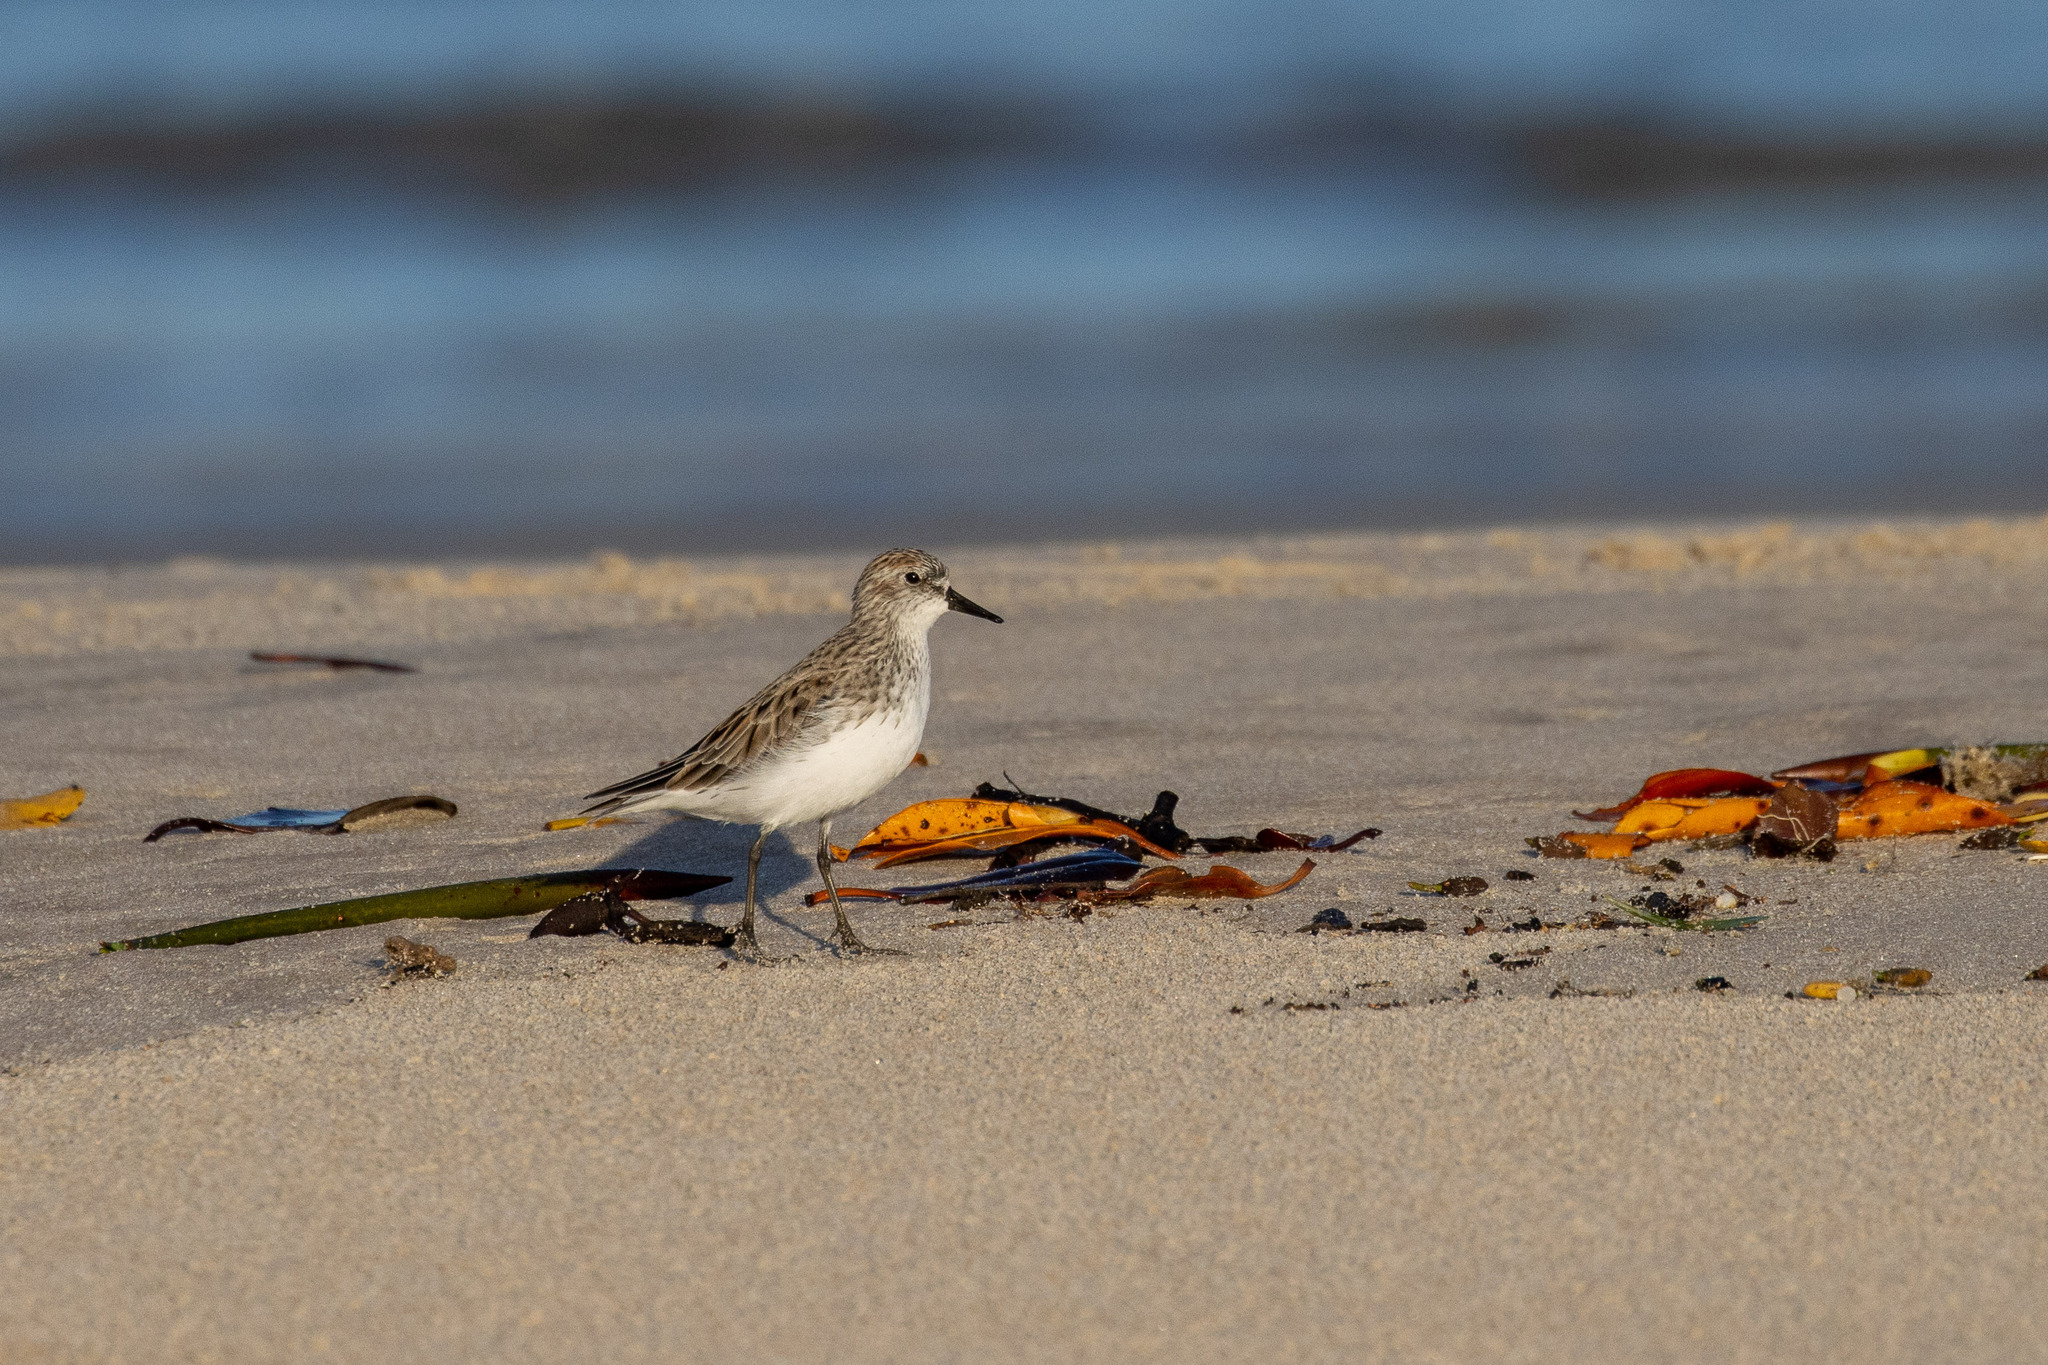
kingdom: Animalia
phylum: Chordata
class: Aves
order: Charadriiformes
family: Scolopacidae
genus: Calidris
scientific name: Calidris pusilla
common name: Semipalmated sandpiper
